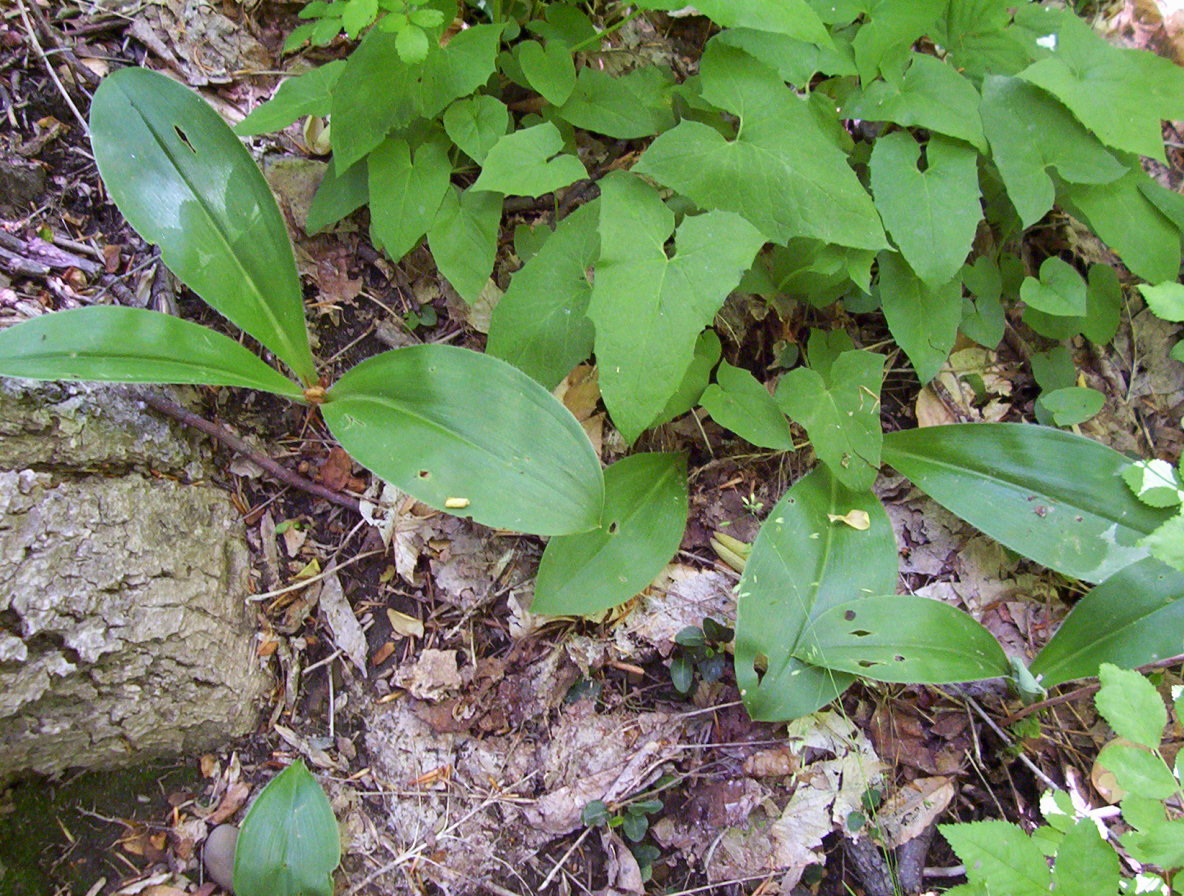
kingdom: Plantae
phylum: Tracheophyta
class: Liliopsida
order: Liliales
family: Liliaceae
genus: Clintonia
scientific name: Clintonia umbellulata
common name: Speckle wood-lily
